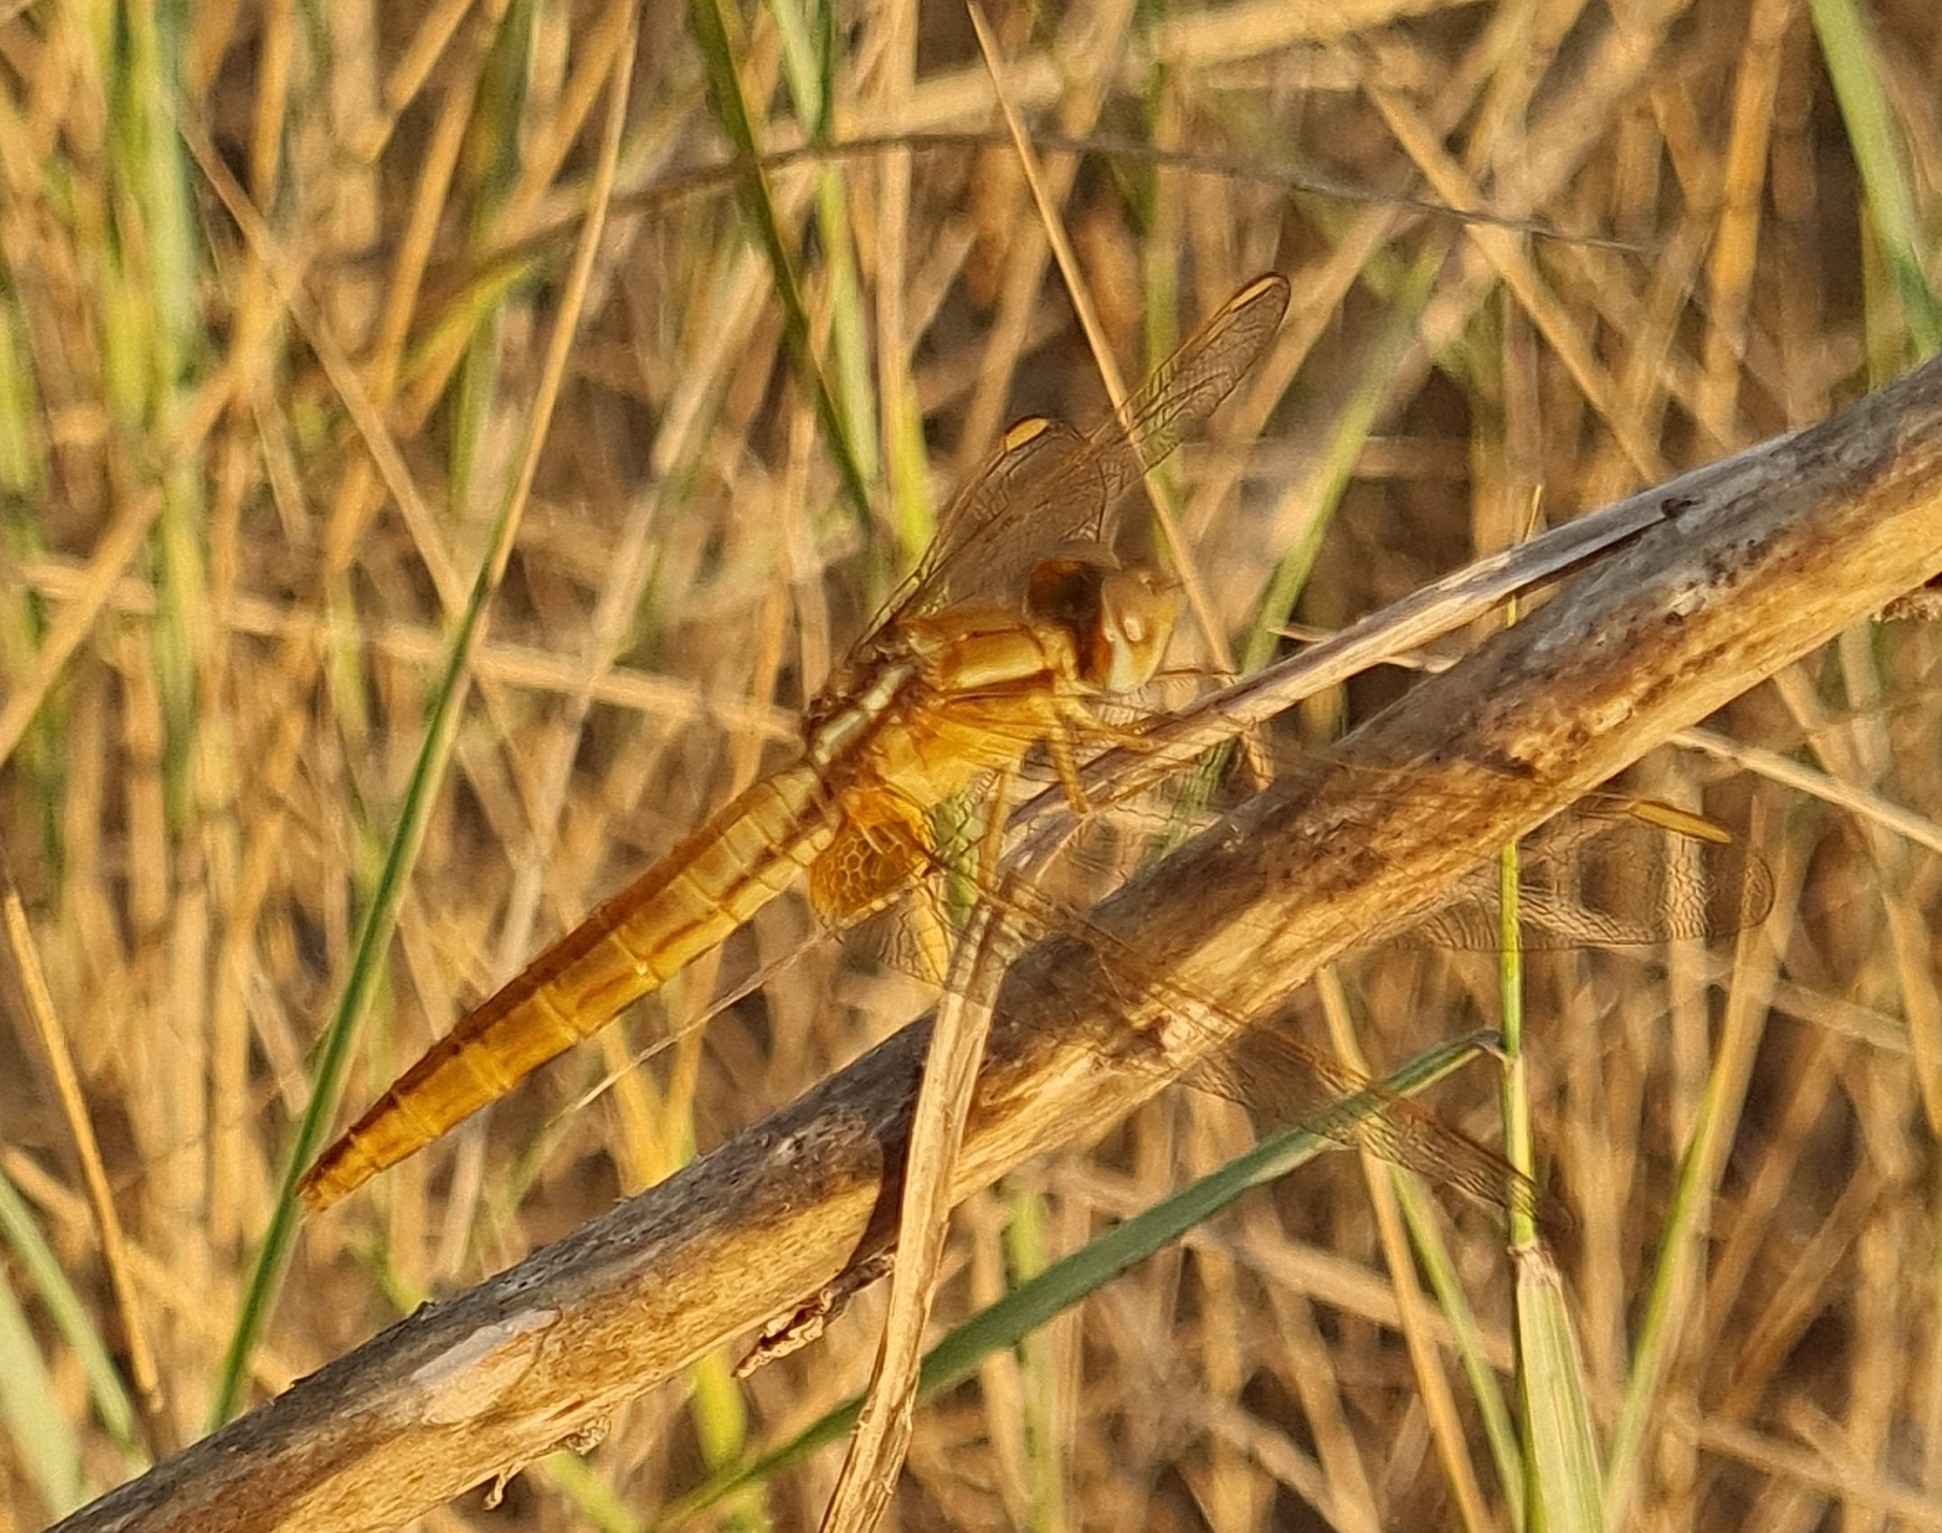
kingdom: Animalia
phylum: Arthropoda
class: Insecta
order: Odonata
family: Libellulidae
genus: Crocothemis
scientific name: Crocothemis erythraea
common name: Scarlet dragonfly
